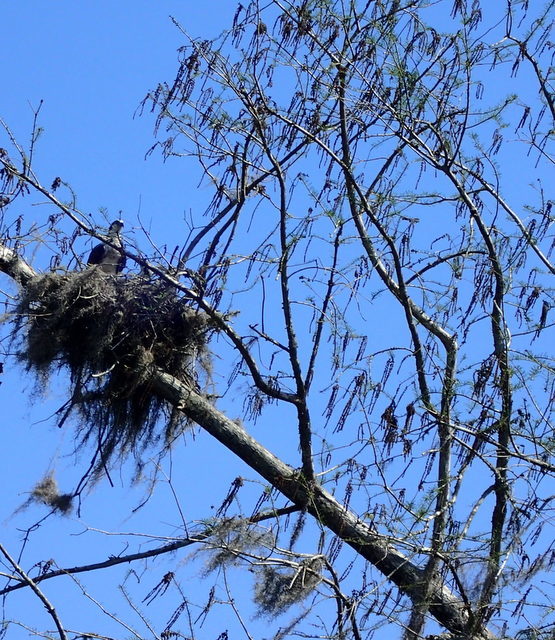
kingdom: Animalia
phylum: Chordata
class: Aves
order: Accipitriformes
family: Pandionidae
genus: Pandion
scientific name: Pandion haliaetus
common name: Osprey
